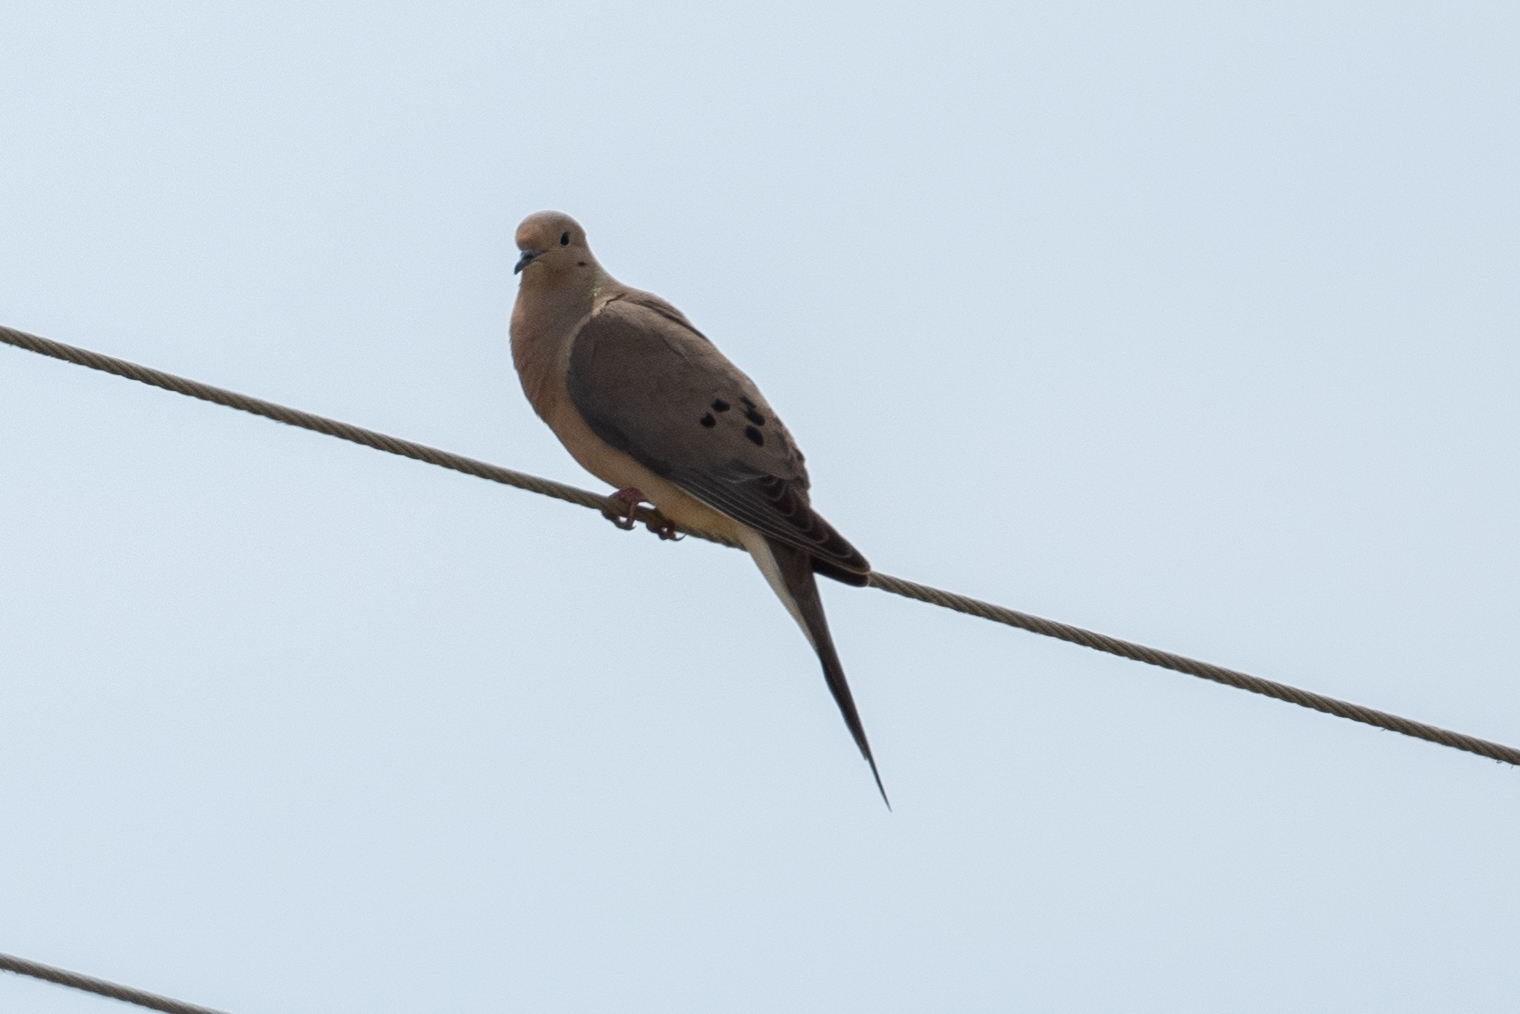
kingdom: Animalia
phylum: Chordata
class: Aves
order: Columbiformes
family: Columbidae
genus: Zenaida
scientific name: Zenaida macroura
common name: Mourning dove
